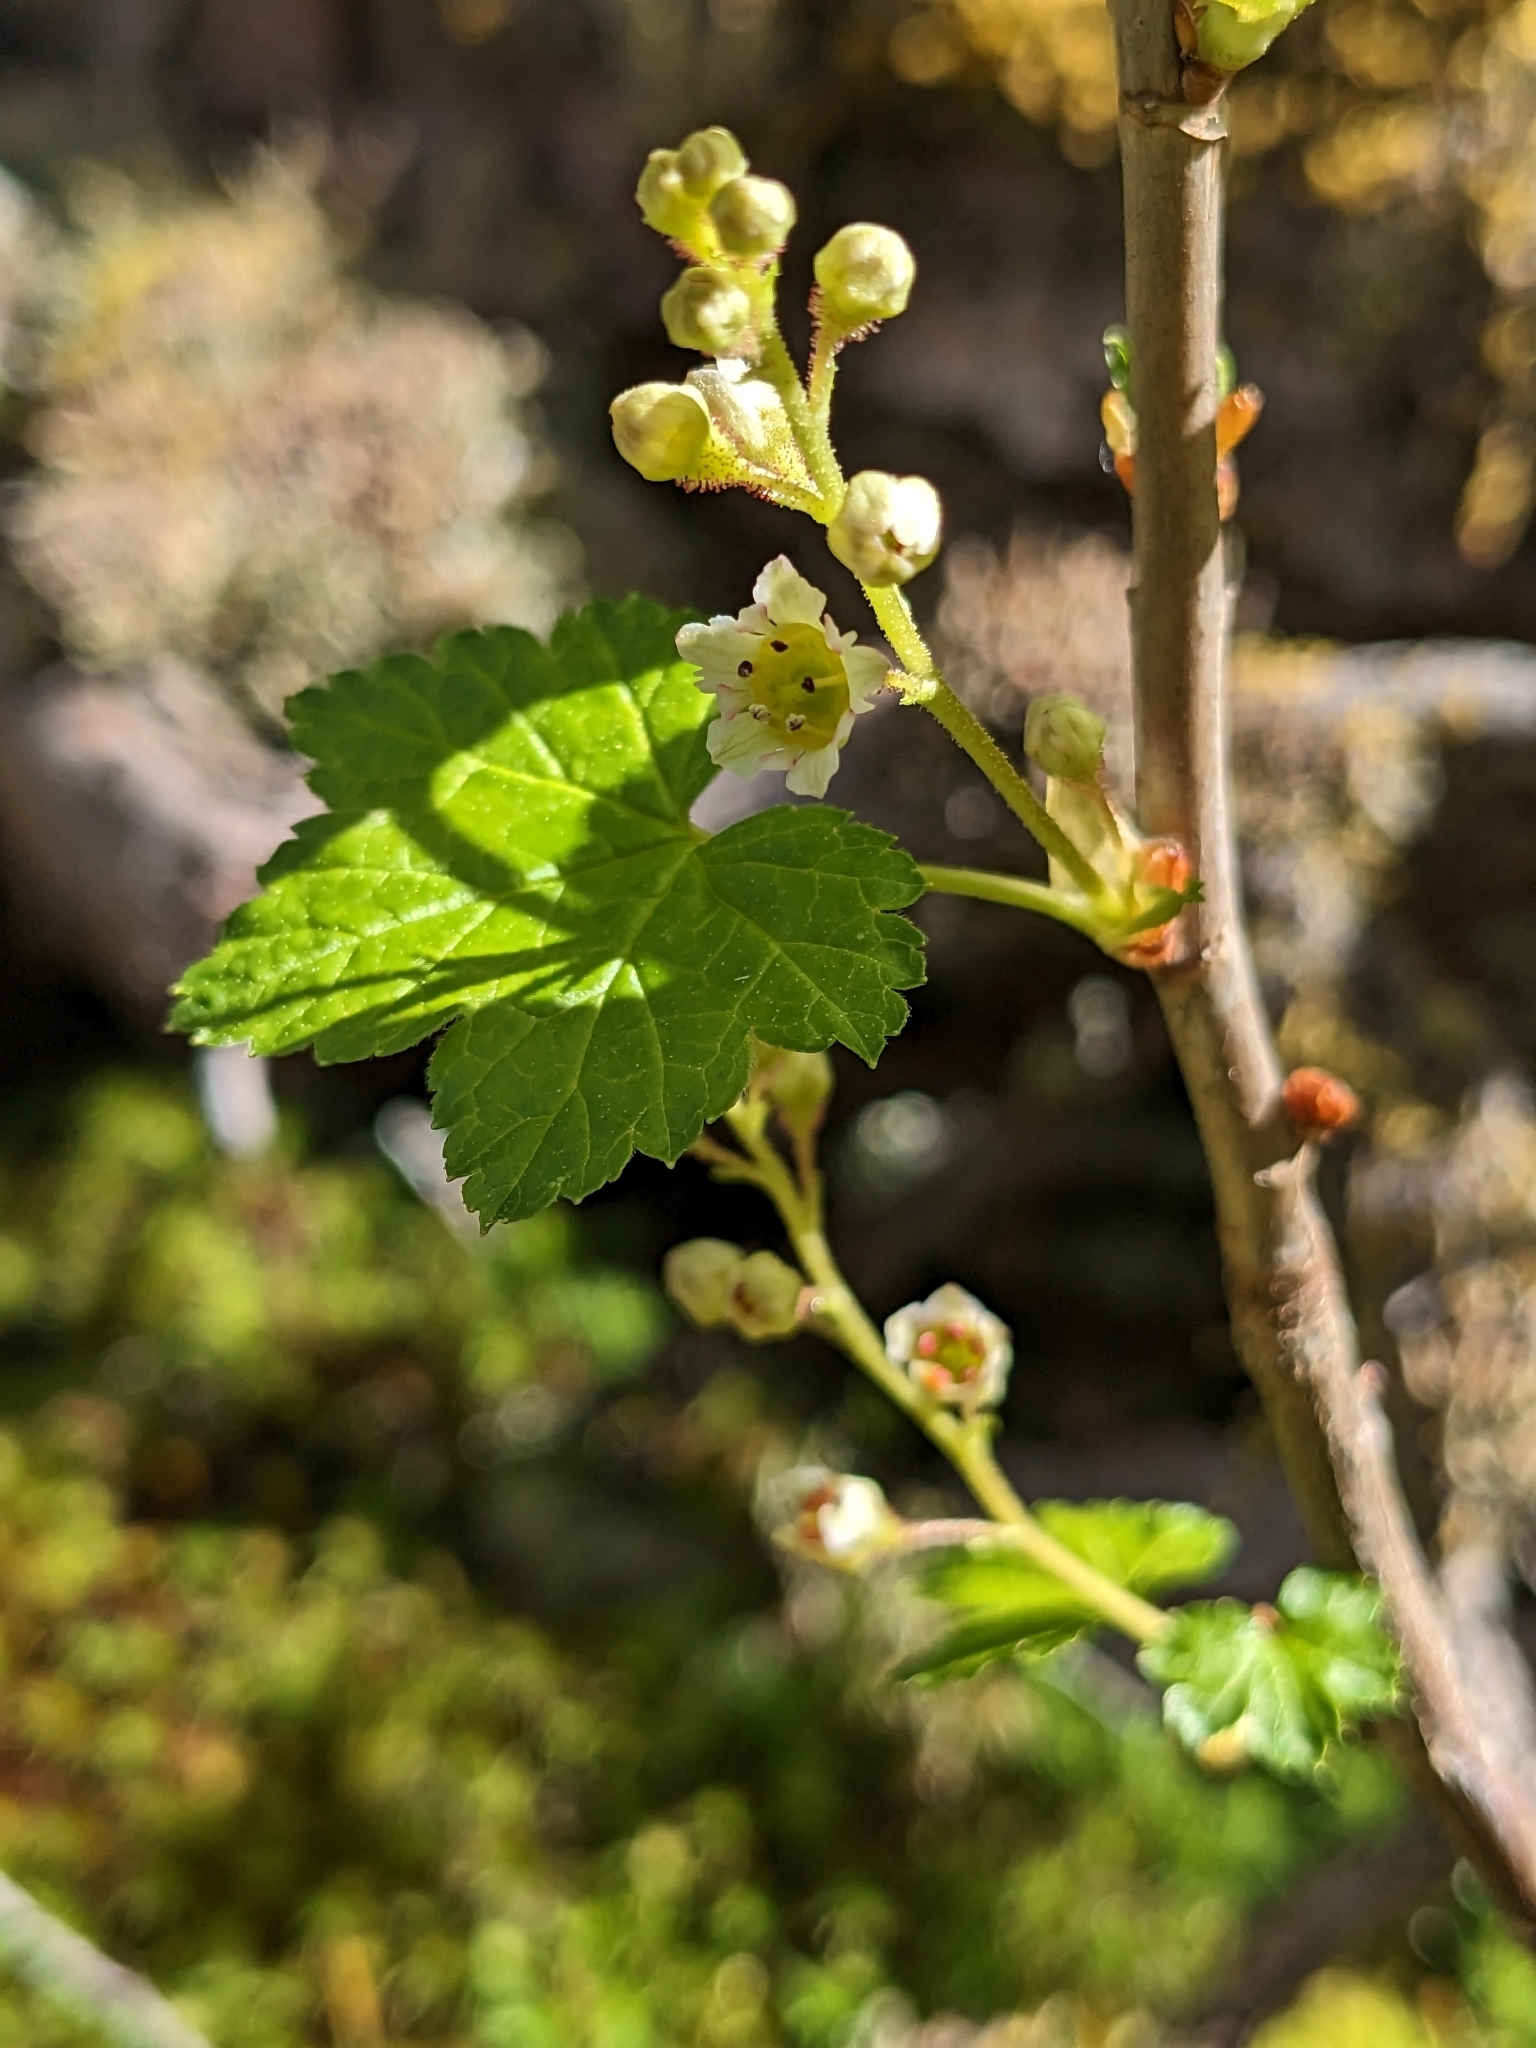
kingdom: Plantae
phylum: Tracheophyta
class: Magnoliopsida
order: Saxifragales
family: Grossulariaceae
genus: Ribes
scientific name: Ribes glandulosum
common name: Skunk currant
